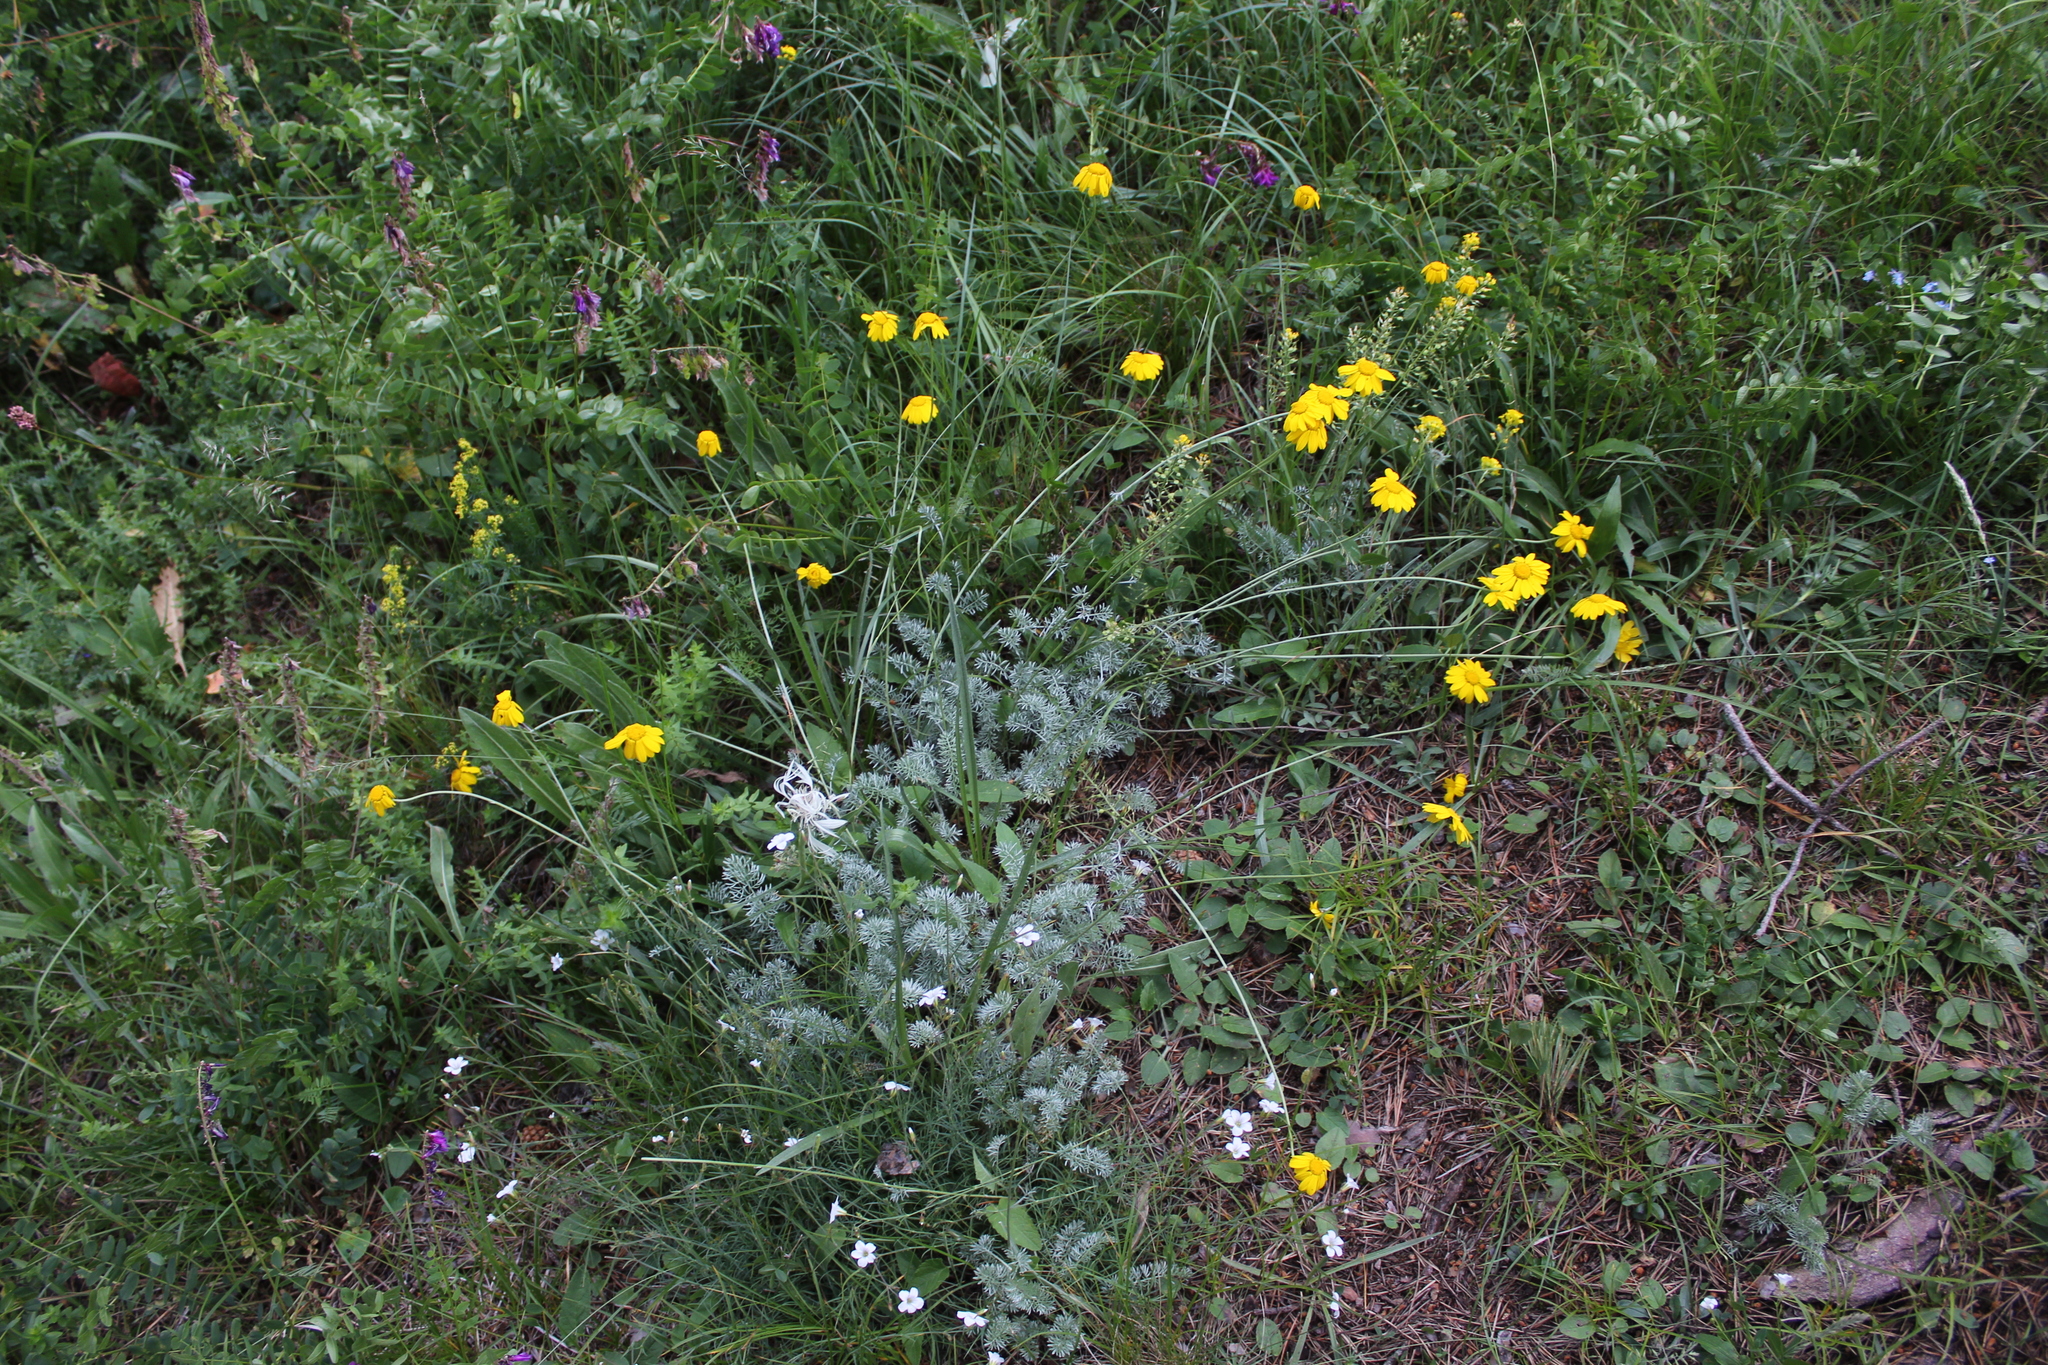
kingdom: Plantae
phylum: Tracheophyta
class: Magnoliopsida
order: Asterales
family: Asteraceae
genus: Archanthemis
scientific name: Archanthemis marschalliana
